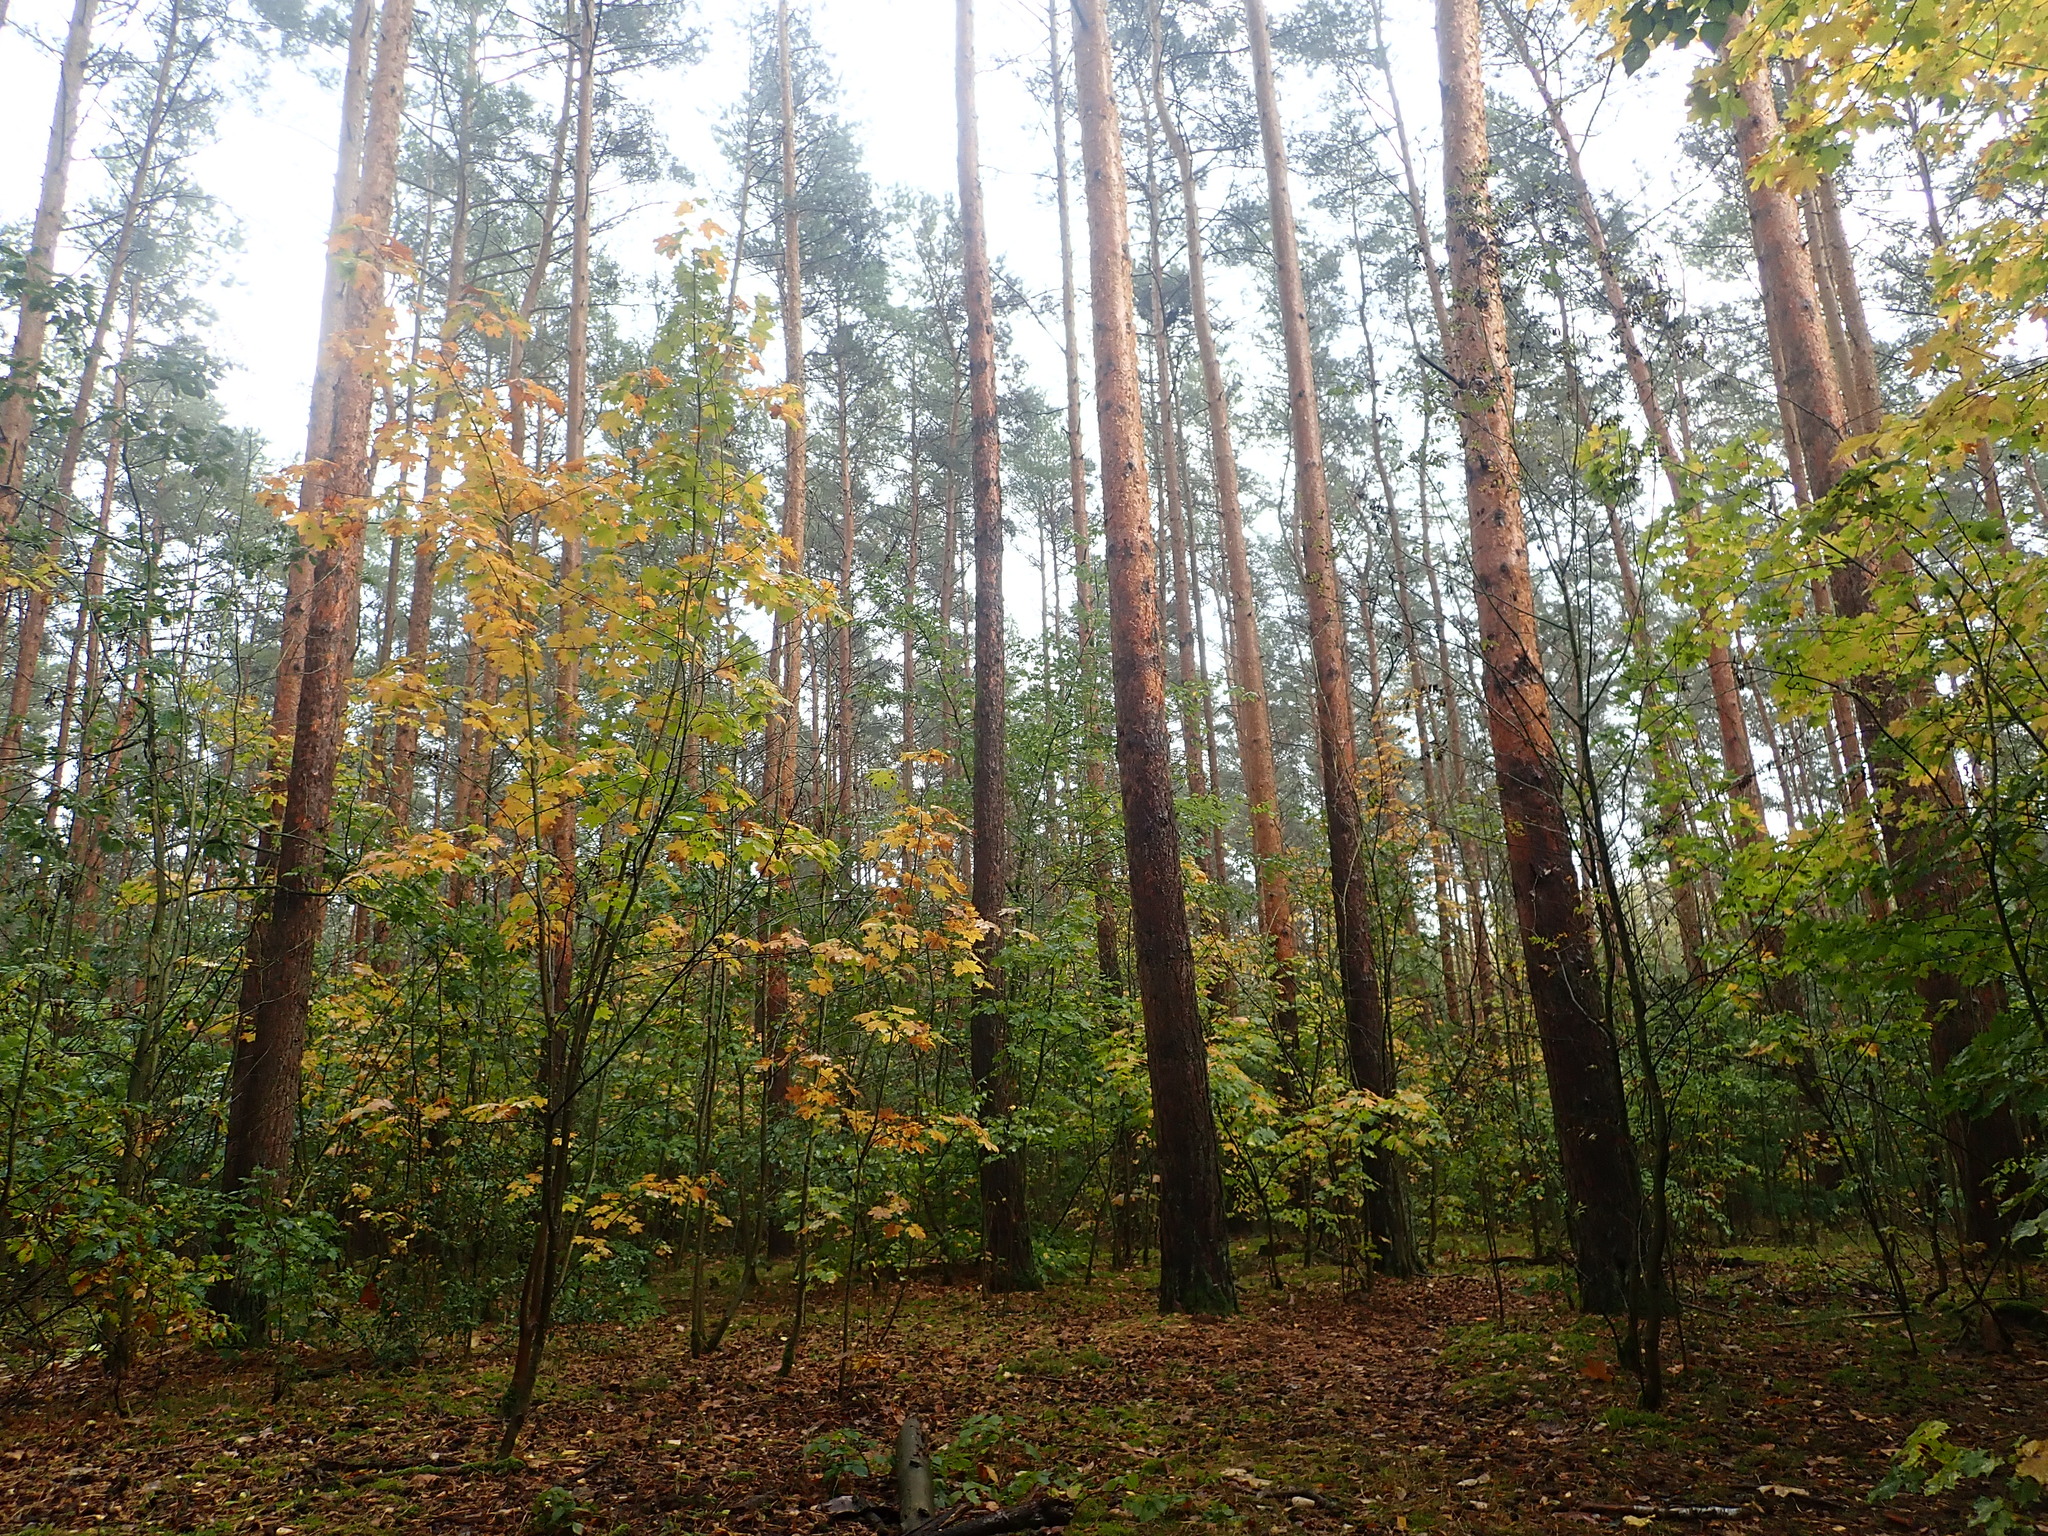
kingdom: Plantae
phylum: Tracheophyta
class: Pinopsida
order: Pinales
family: Pinaceae
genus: Pinus
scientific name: Pinus sylvestris
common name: Scots pine
